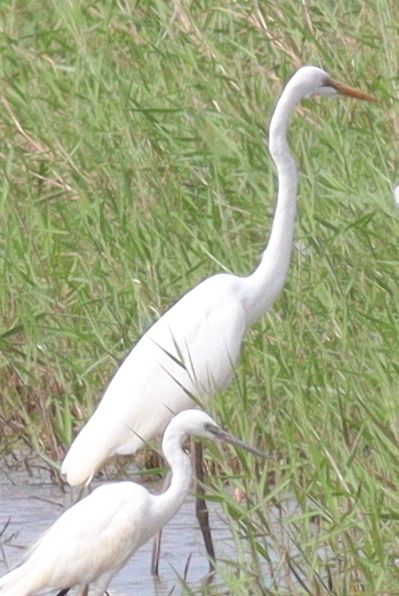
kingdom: Animalia
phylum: Chordata
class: Aves
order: Pelecaniformes
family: Ardeidae
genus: Ardea
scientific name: Ardea alba
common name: Great egret
